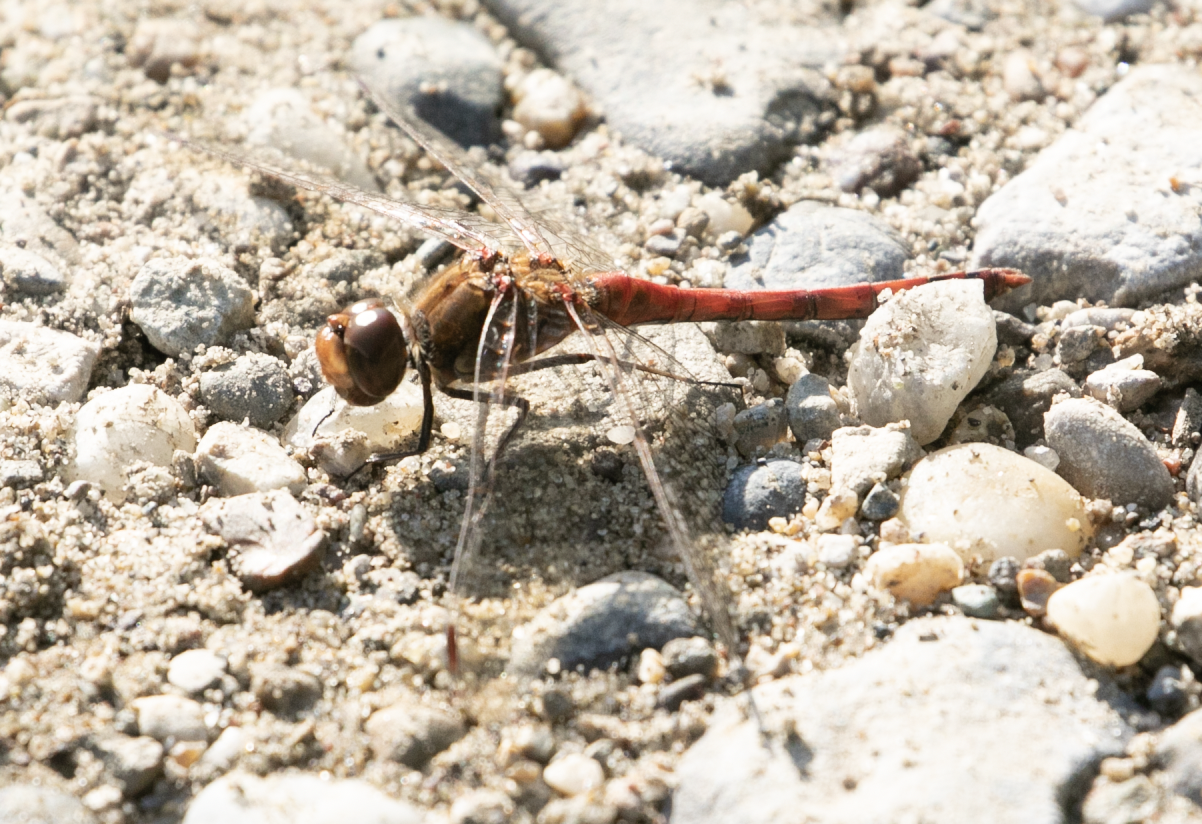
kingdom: Animalia
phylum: Arthropoda
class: Insecta
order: Odonata
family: Libellulidae
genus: Sympetrum
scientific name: Sympetrum striolatum
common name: Common darter
